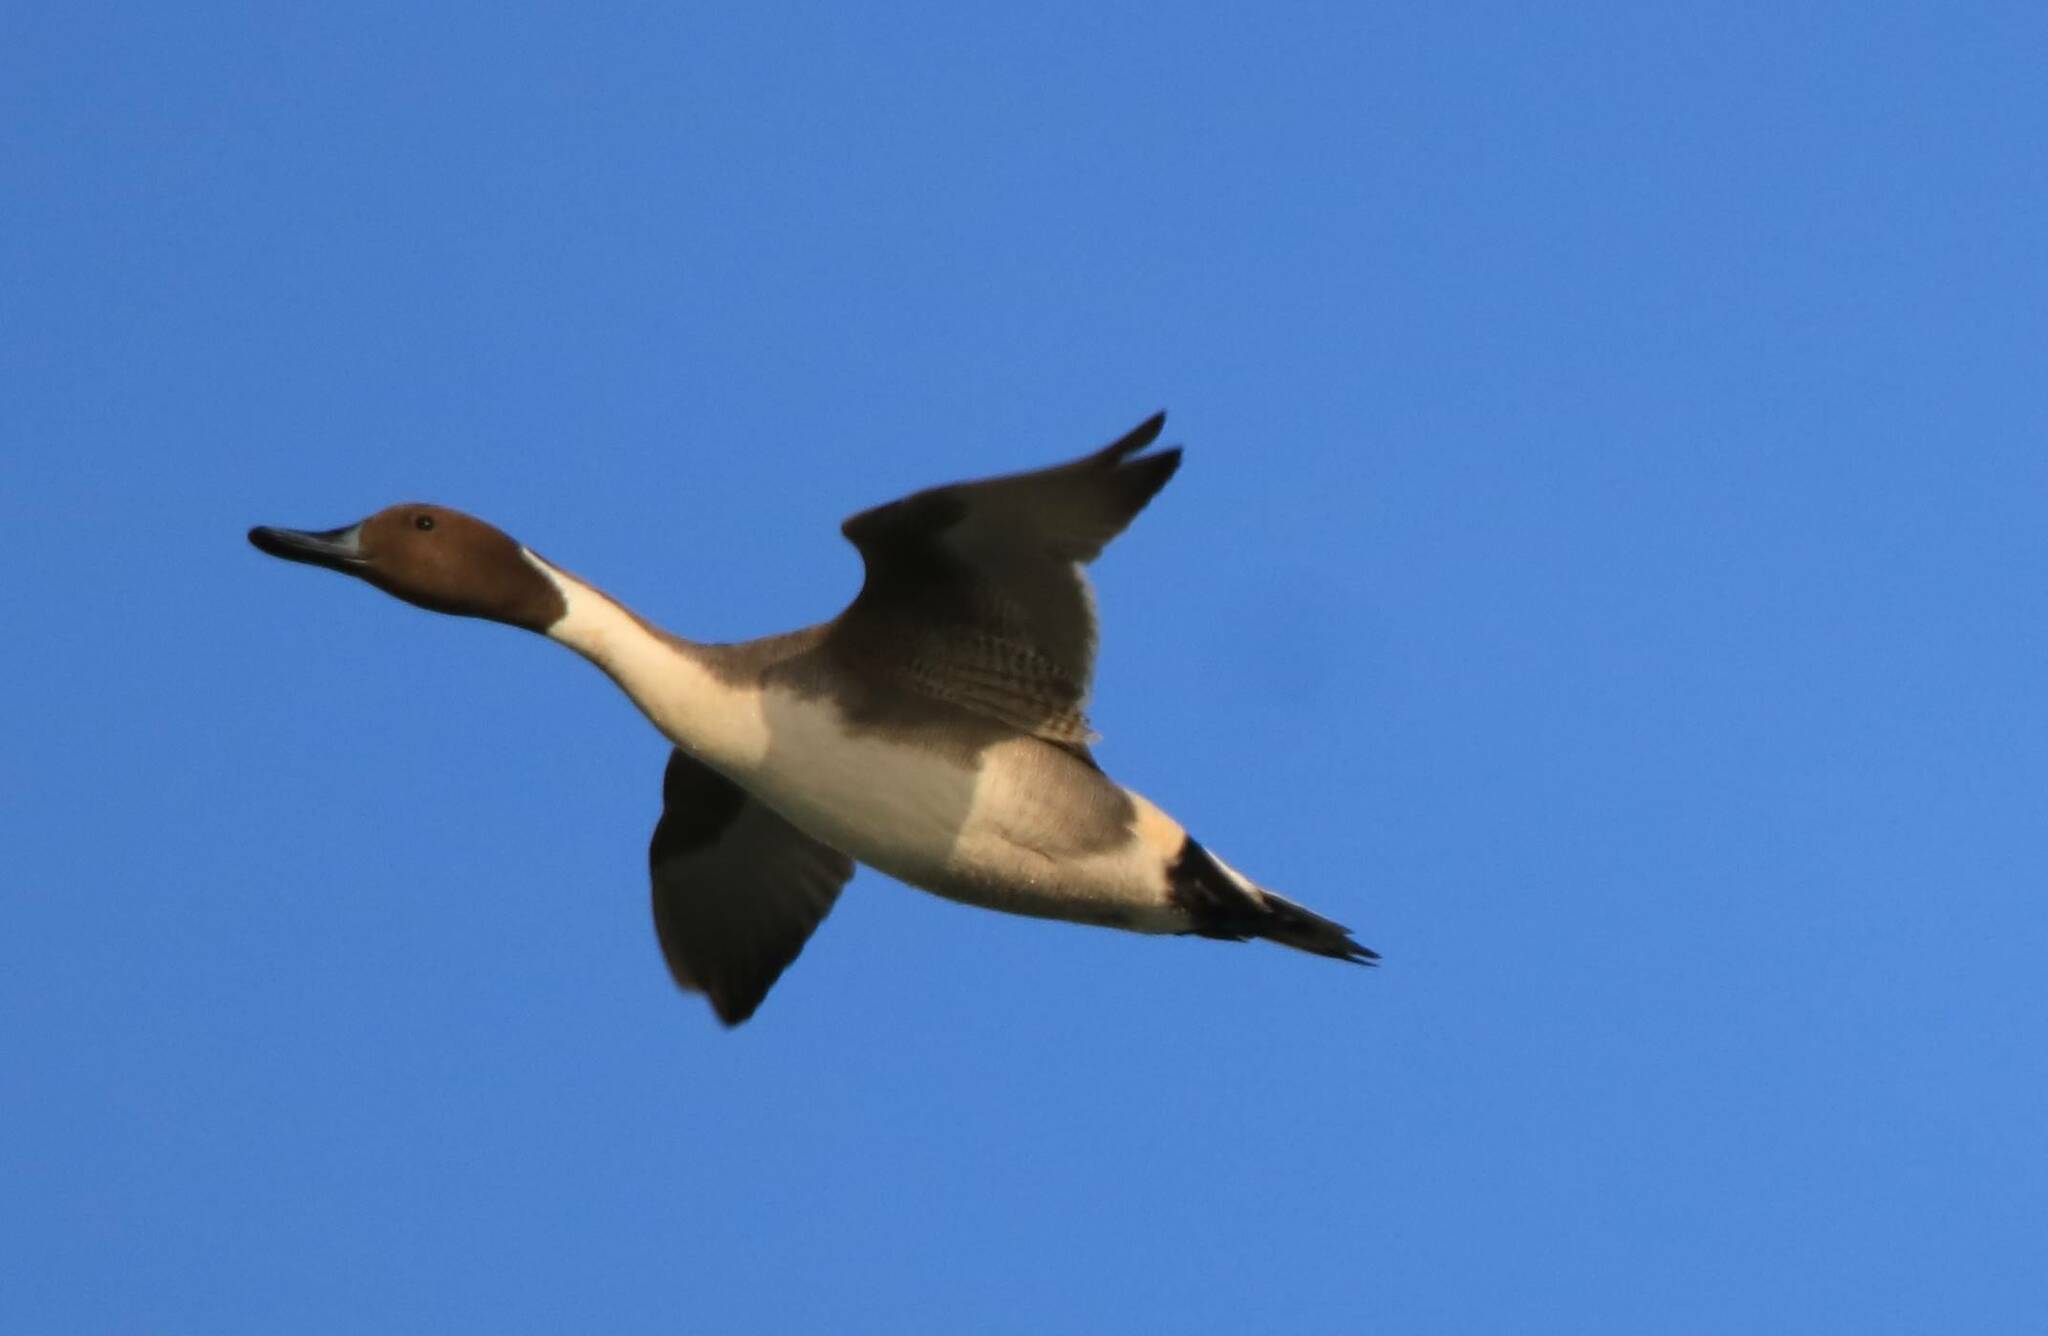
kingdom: Animalia
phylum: Chordata
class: Aves
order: Anseriformes
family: Anatidae
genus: Anas
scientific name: Anas acuta
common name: Northern pintail
